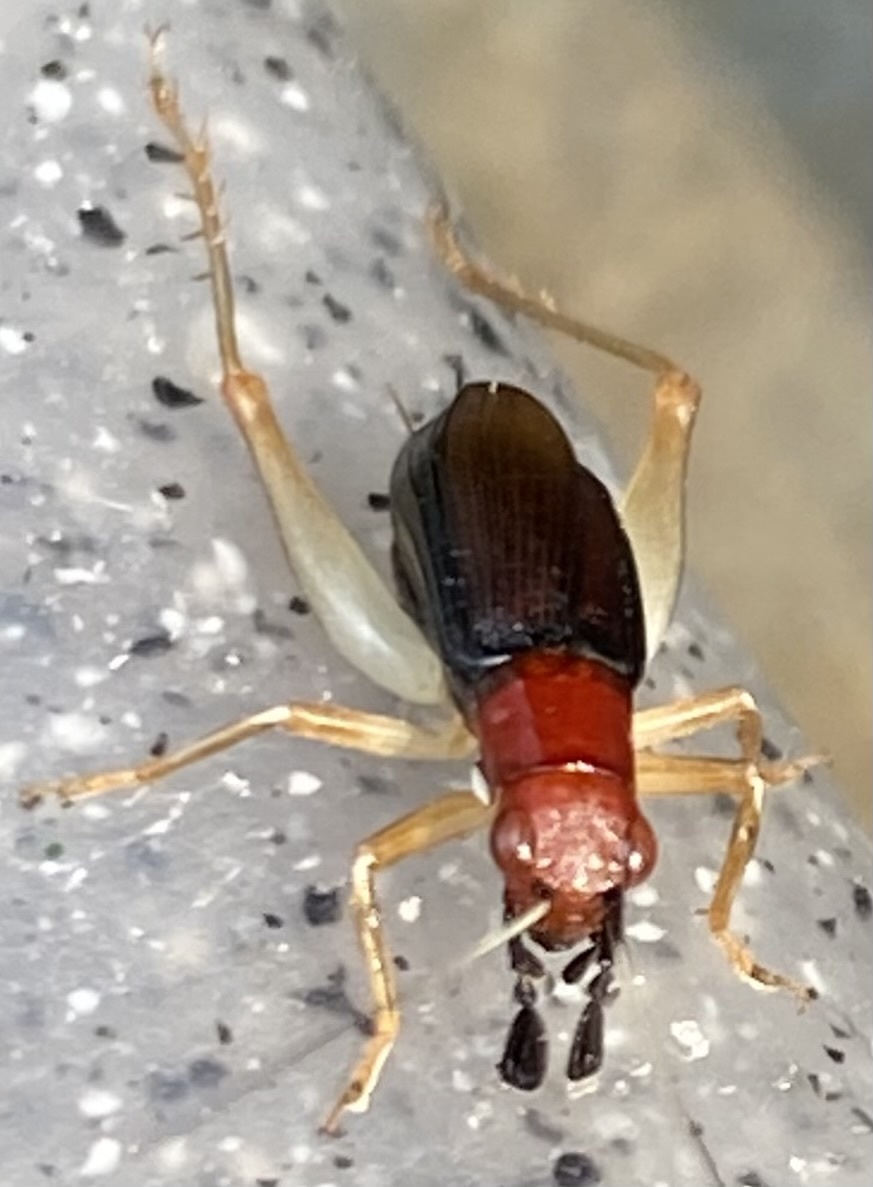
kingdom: Animalia
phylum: Arthropoda
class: Insecta
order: Orthoptera
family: Trigonidiidae
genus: Phyllopalpus
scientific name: Phyllopalpus pulchellus
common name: Handsome trig
